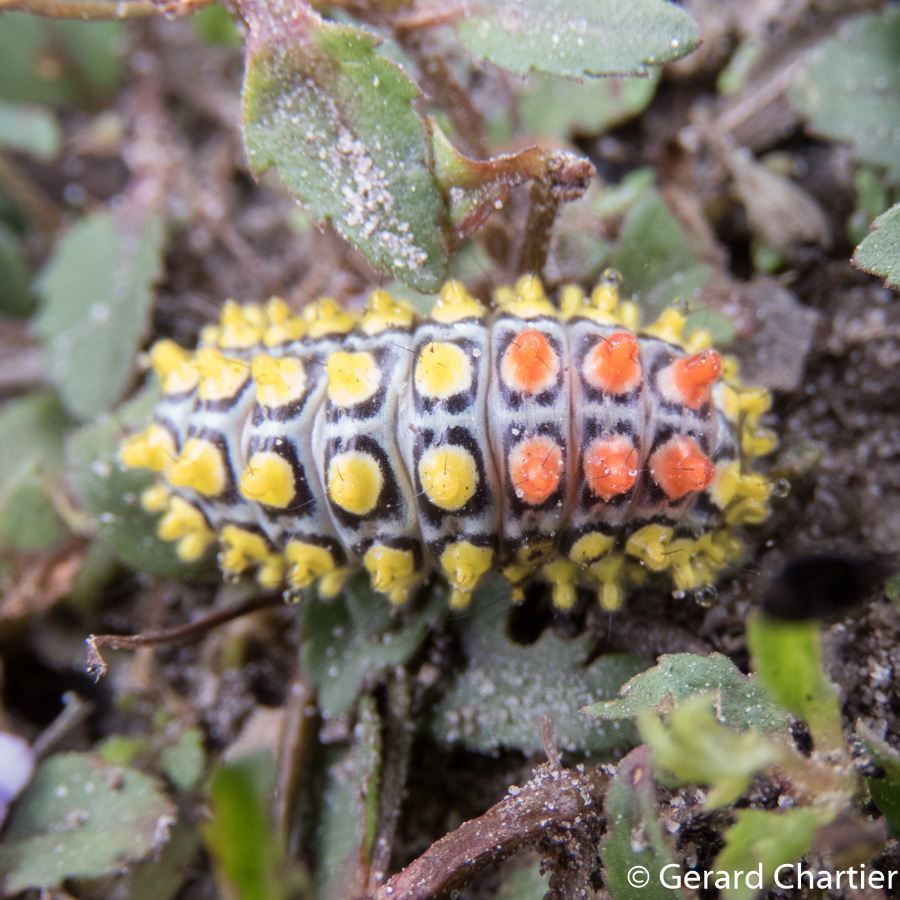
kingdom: Animalia
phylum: Arthropoda
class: Insecta
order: Lepidoptera
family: Zygaenidae
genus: Cyclosia
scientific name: Cyclosia papilionaris
